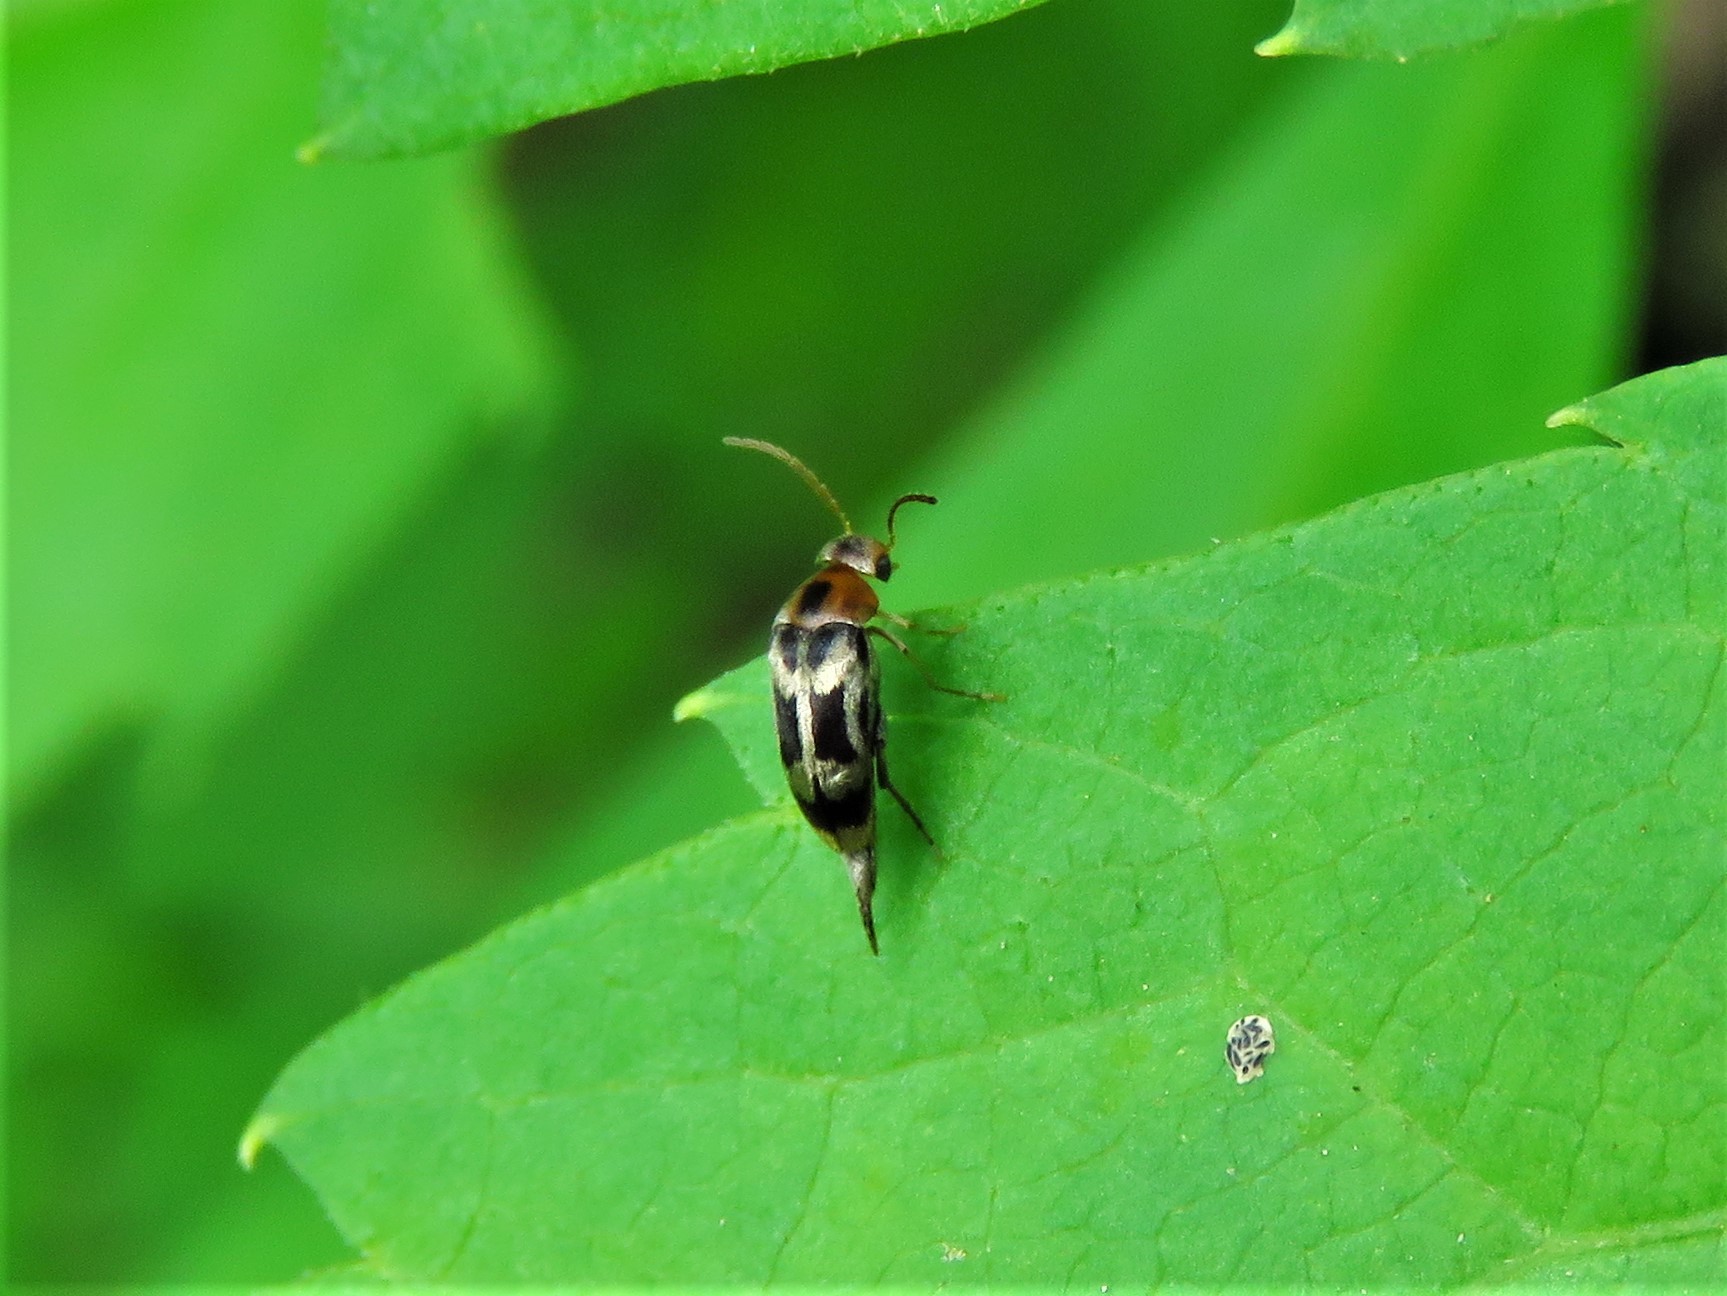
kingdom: Animalia
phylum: Arthropoda
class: Insecta
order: Coleoptera
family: Mordellidae
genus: Falsomordellistena
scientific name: Falsomordellistena hebraica
